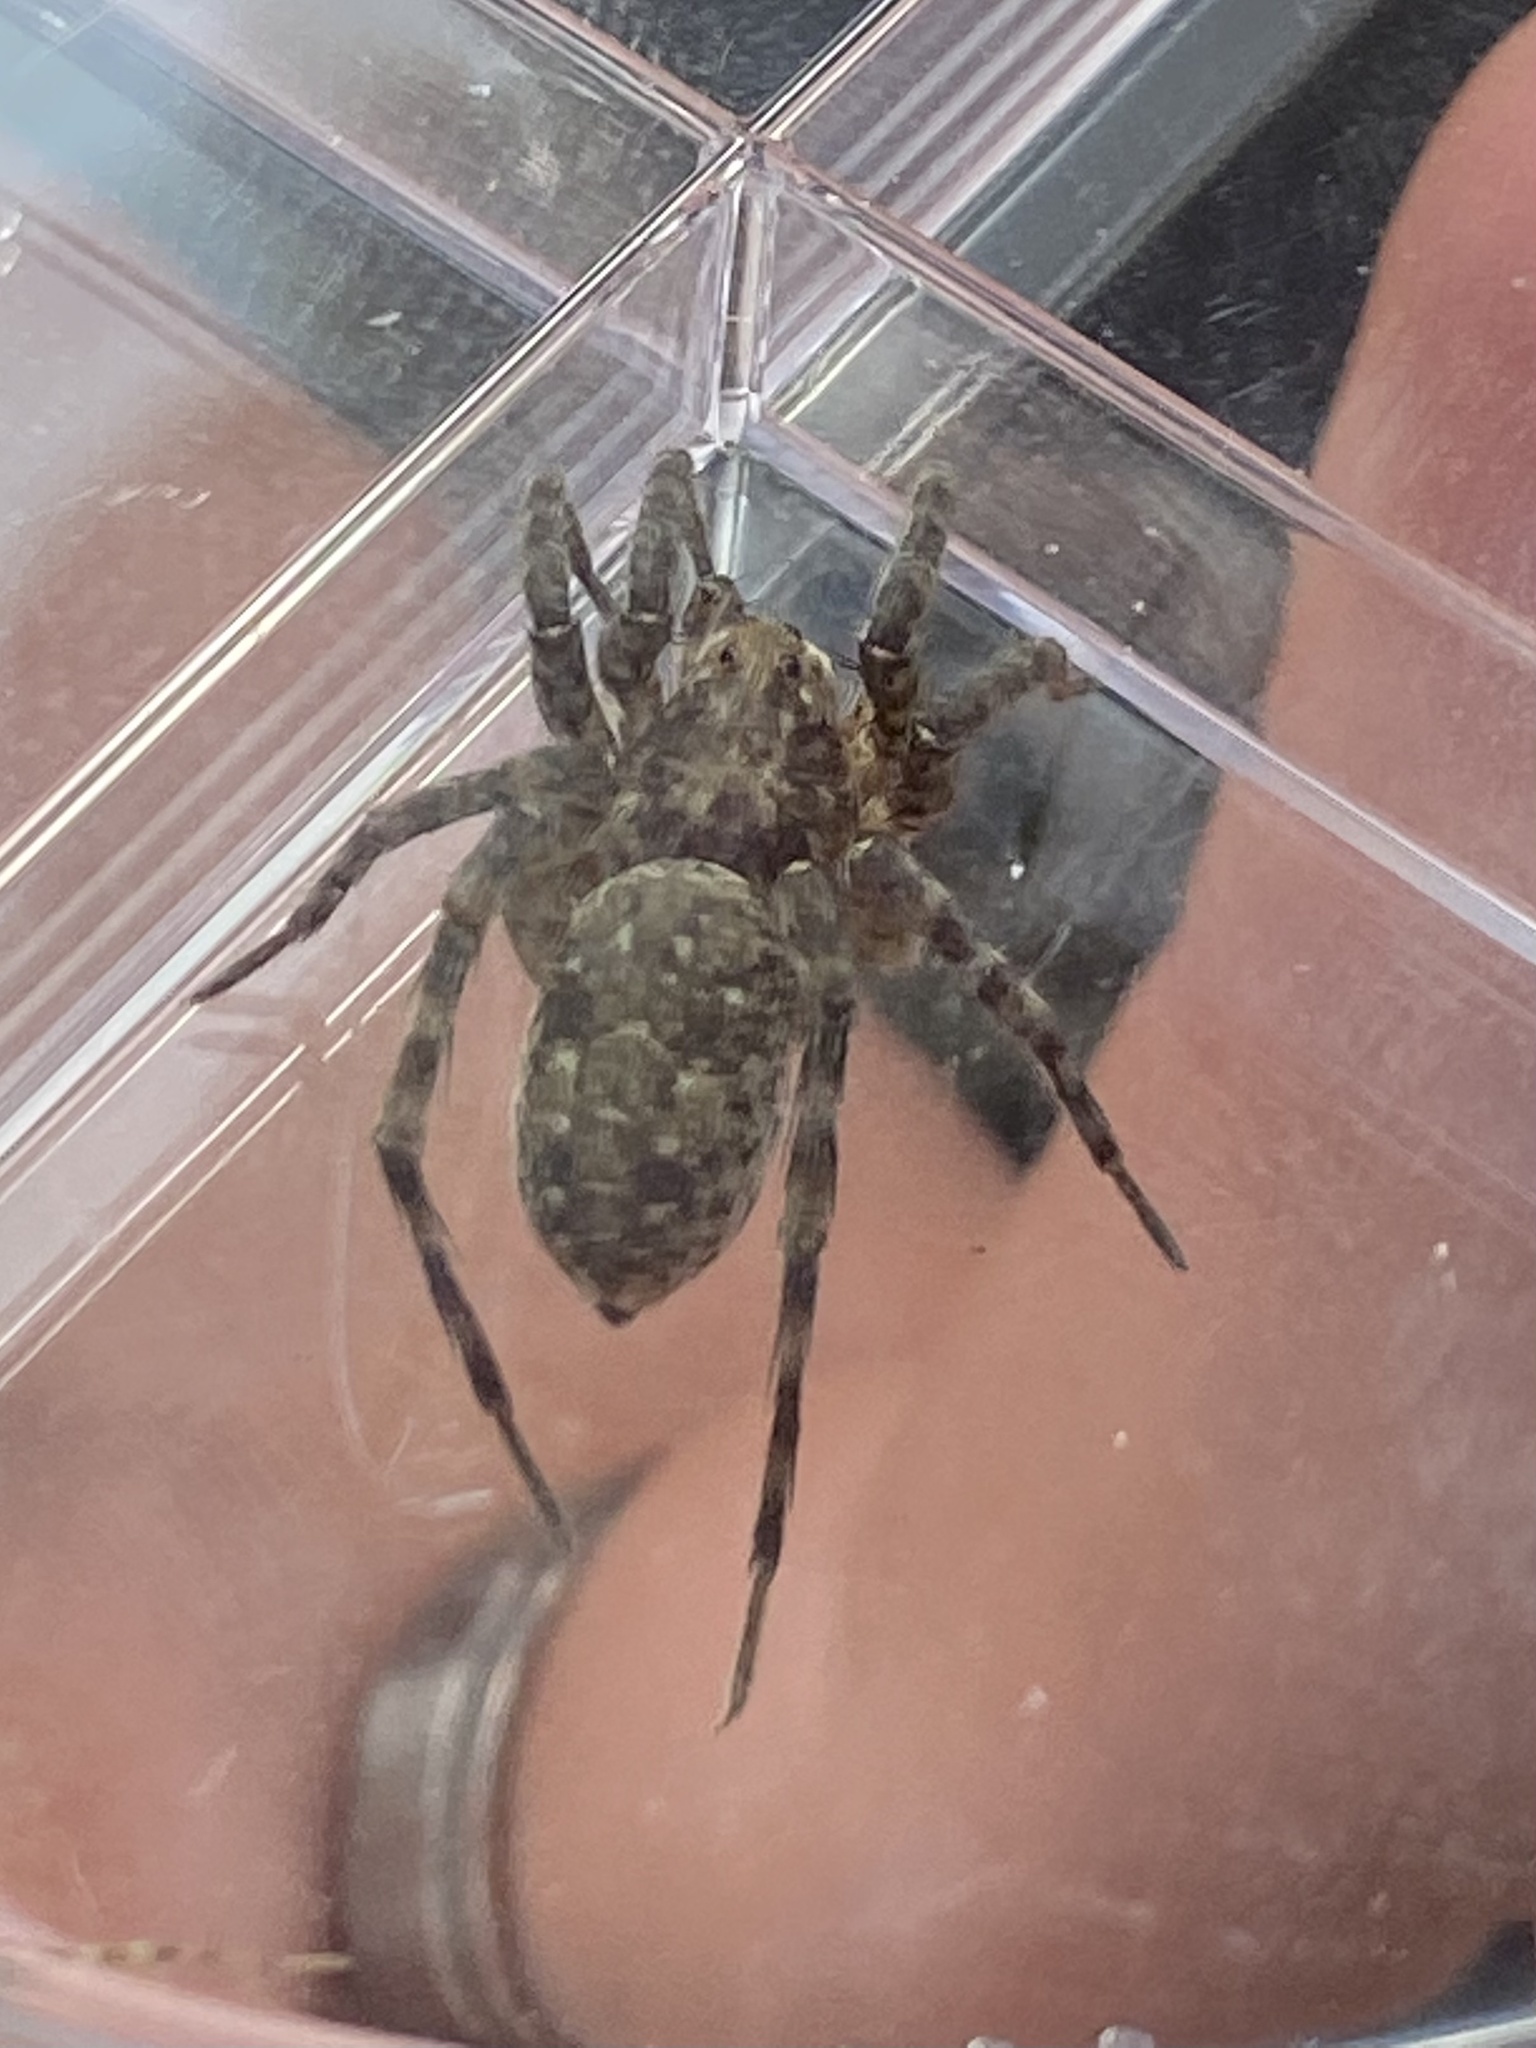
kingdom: Animalia
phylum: Arthropoda
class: Arachnida
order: Araneae
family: Lycosidae
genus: Arctosa
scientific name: Arctosa littoralis
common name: Wolf spiders
